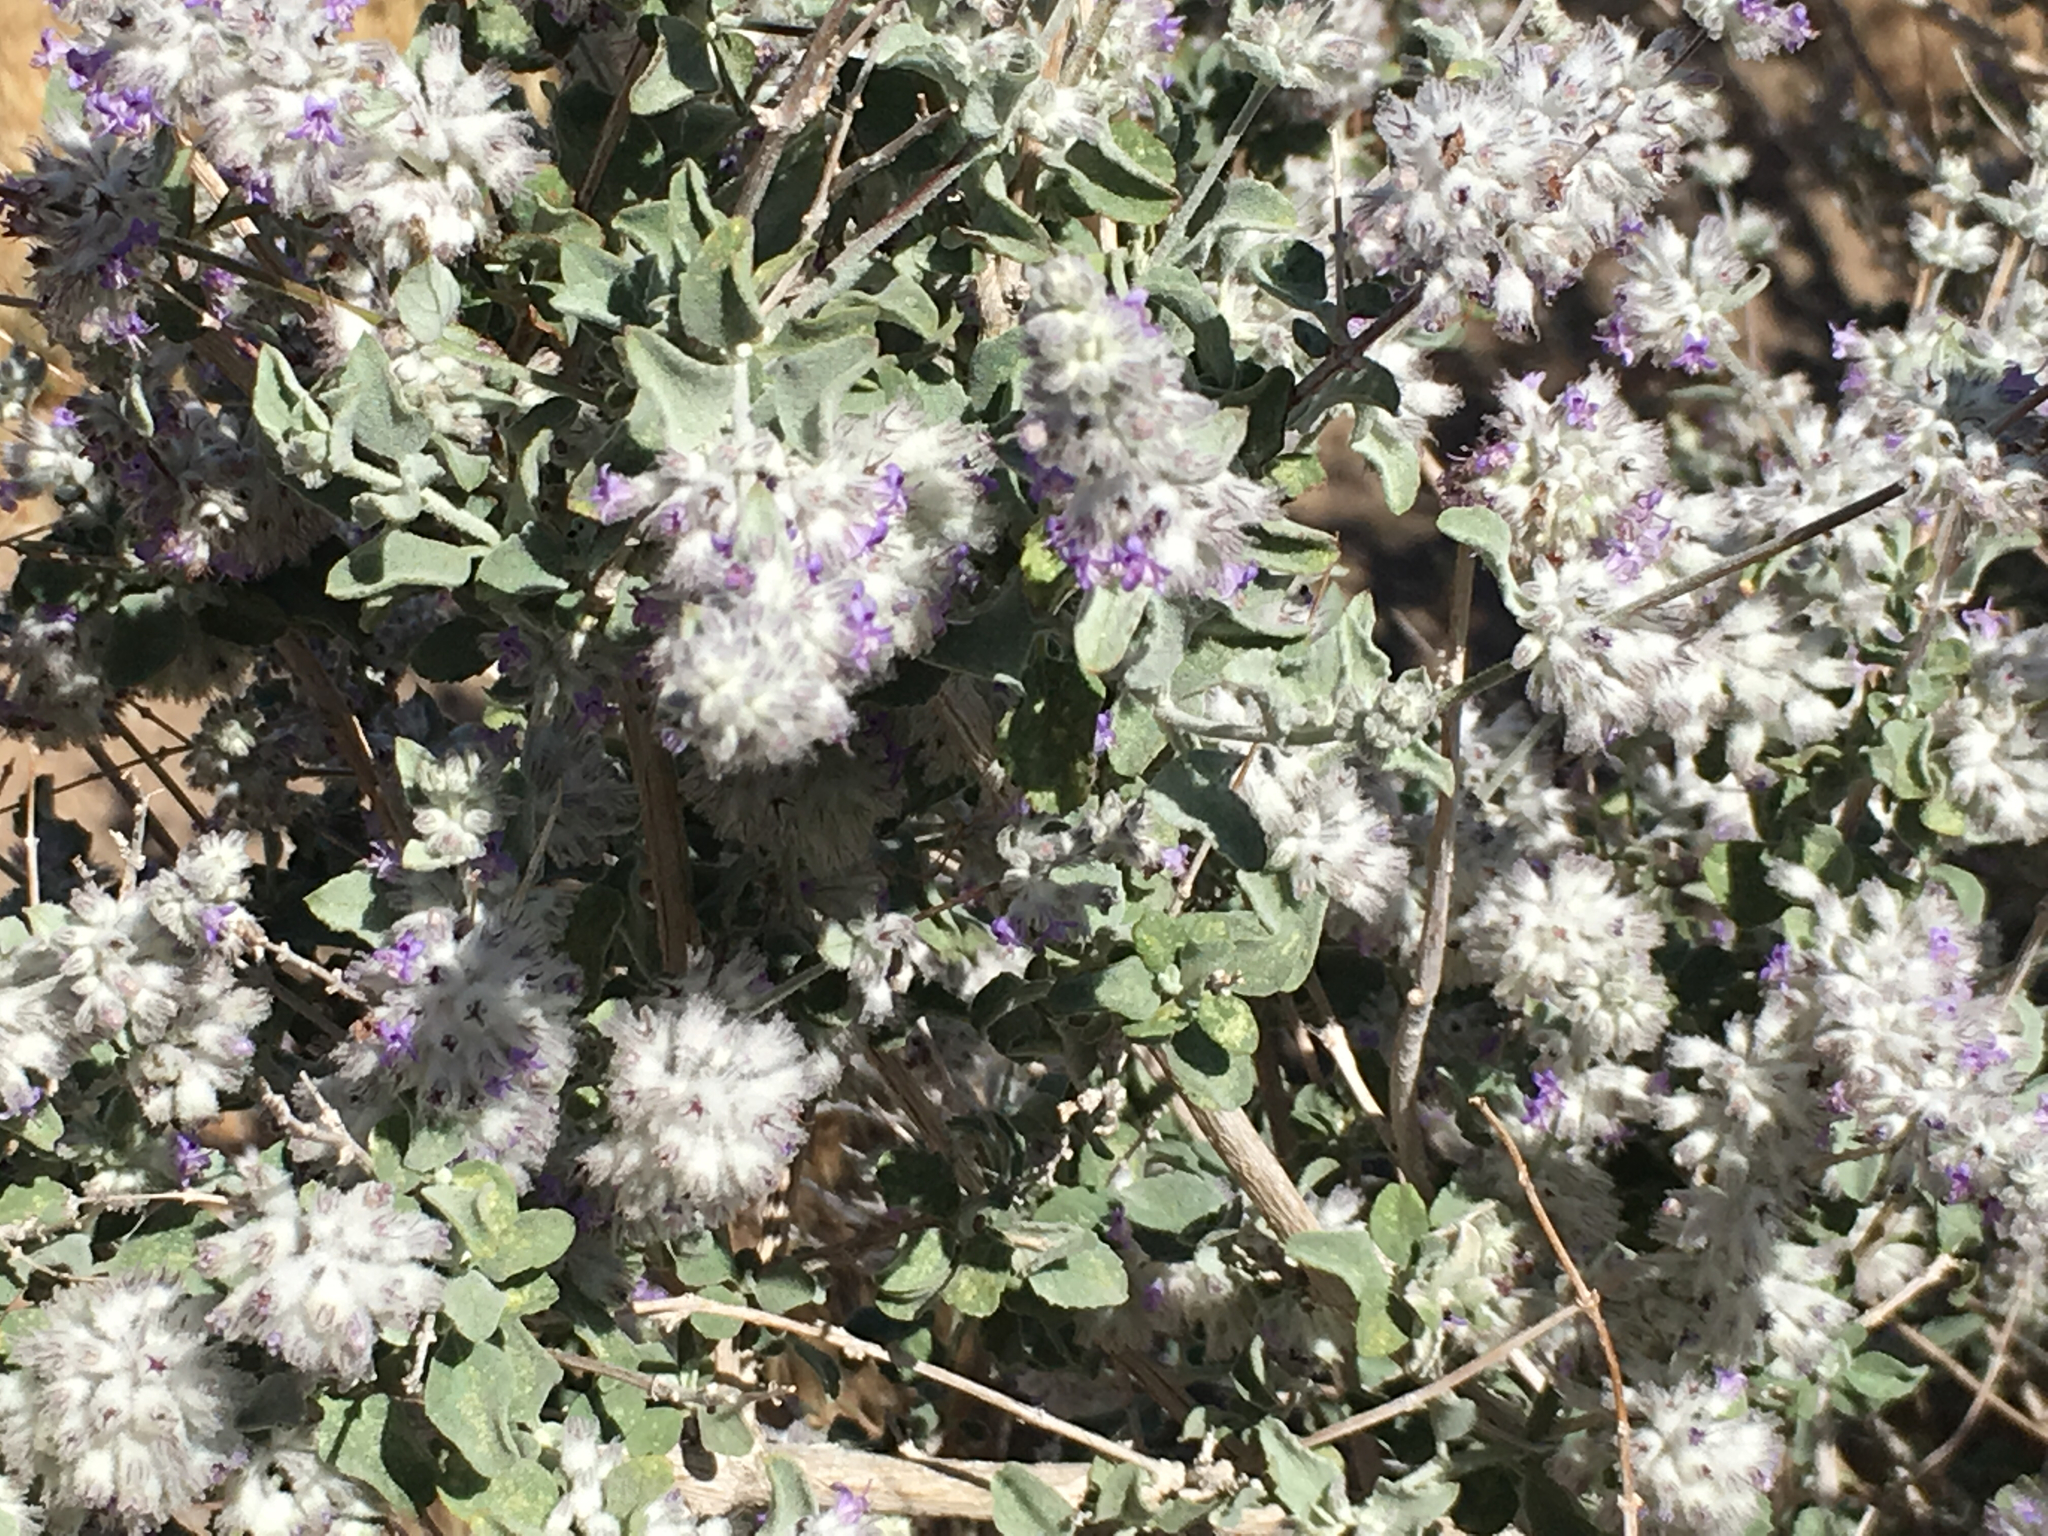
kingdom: Plantae
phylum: Tracheophyta
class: Magnoliopsida
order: Lamiales
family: Lamiaceae
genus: Condea
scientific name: Condea emoryi
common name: Chia
